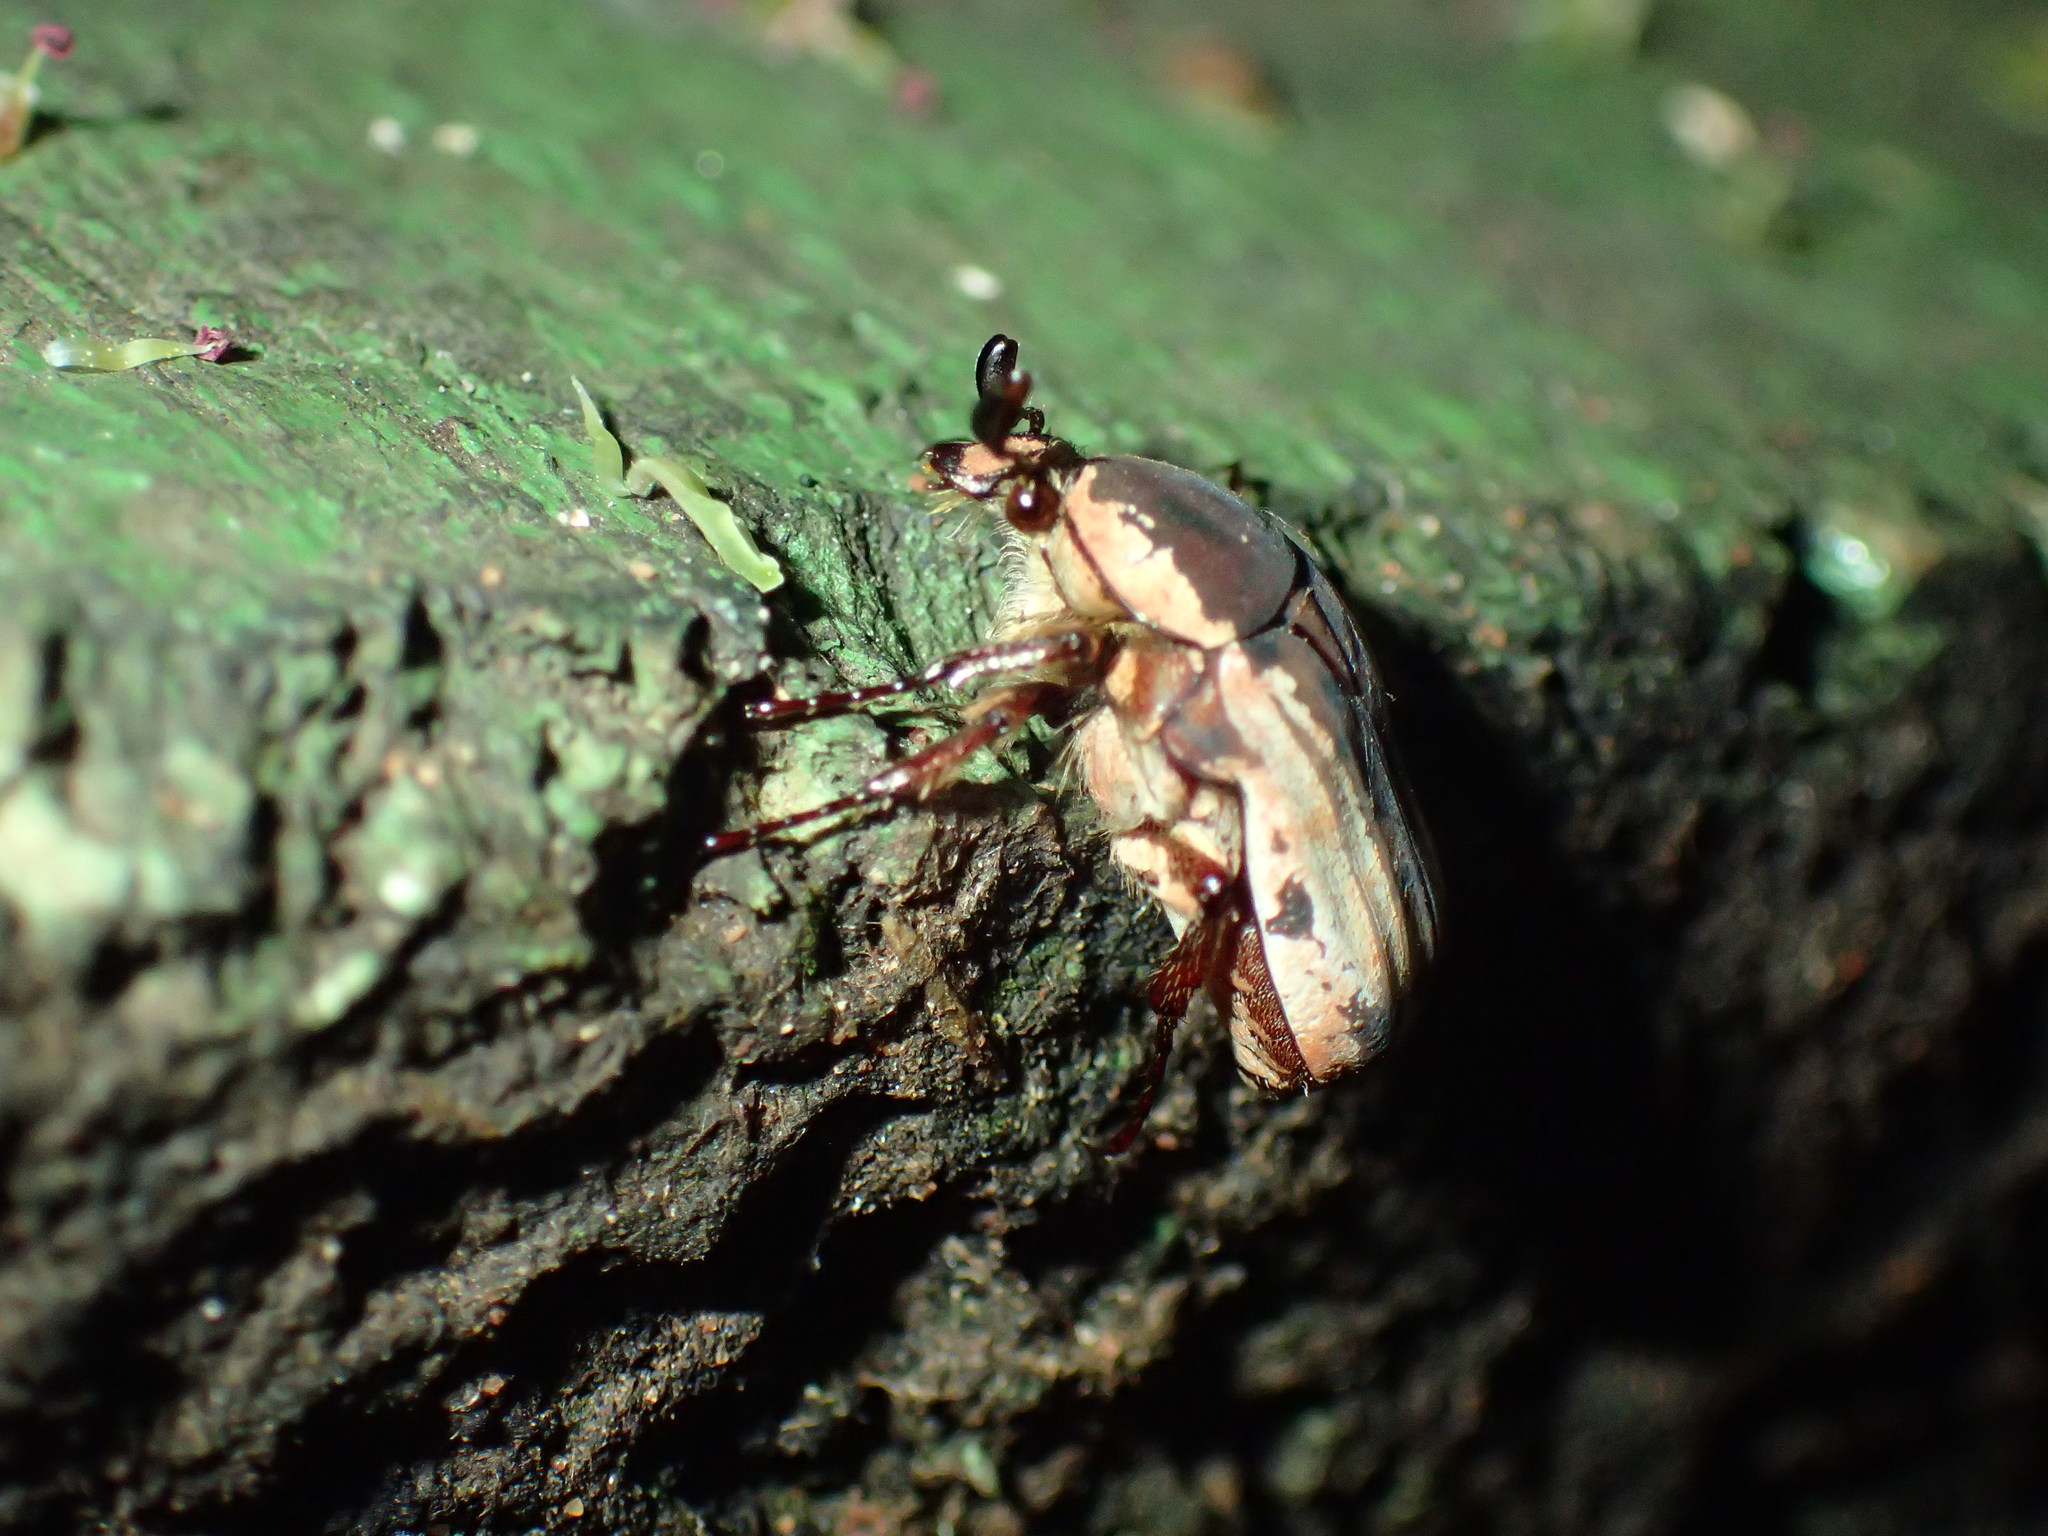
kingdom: Animalia
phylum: Arthropoda
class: Insecta
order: Coleoptera
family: Scarabaeidae
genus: Elaphinis
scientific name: Elaphinis irrorata
